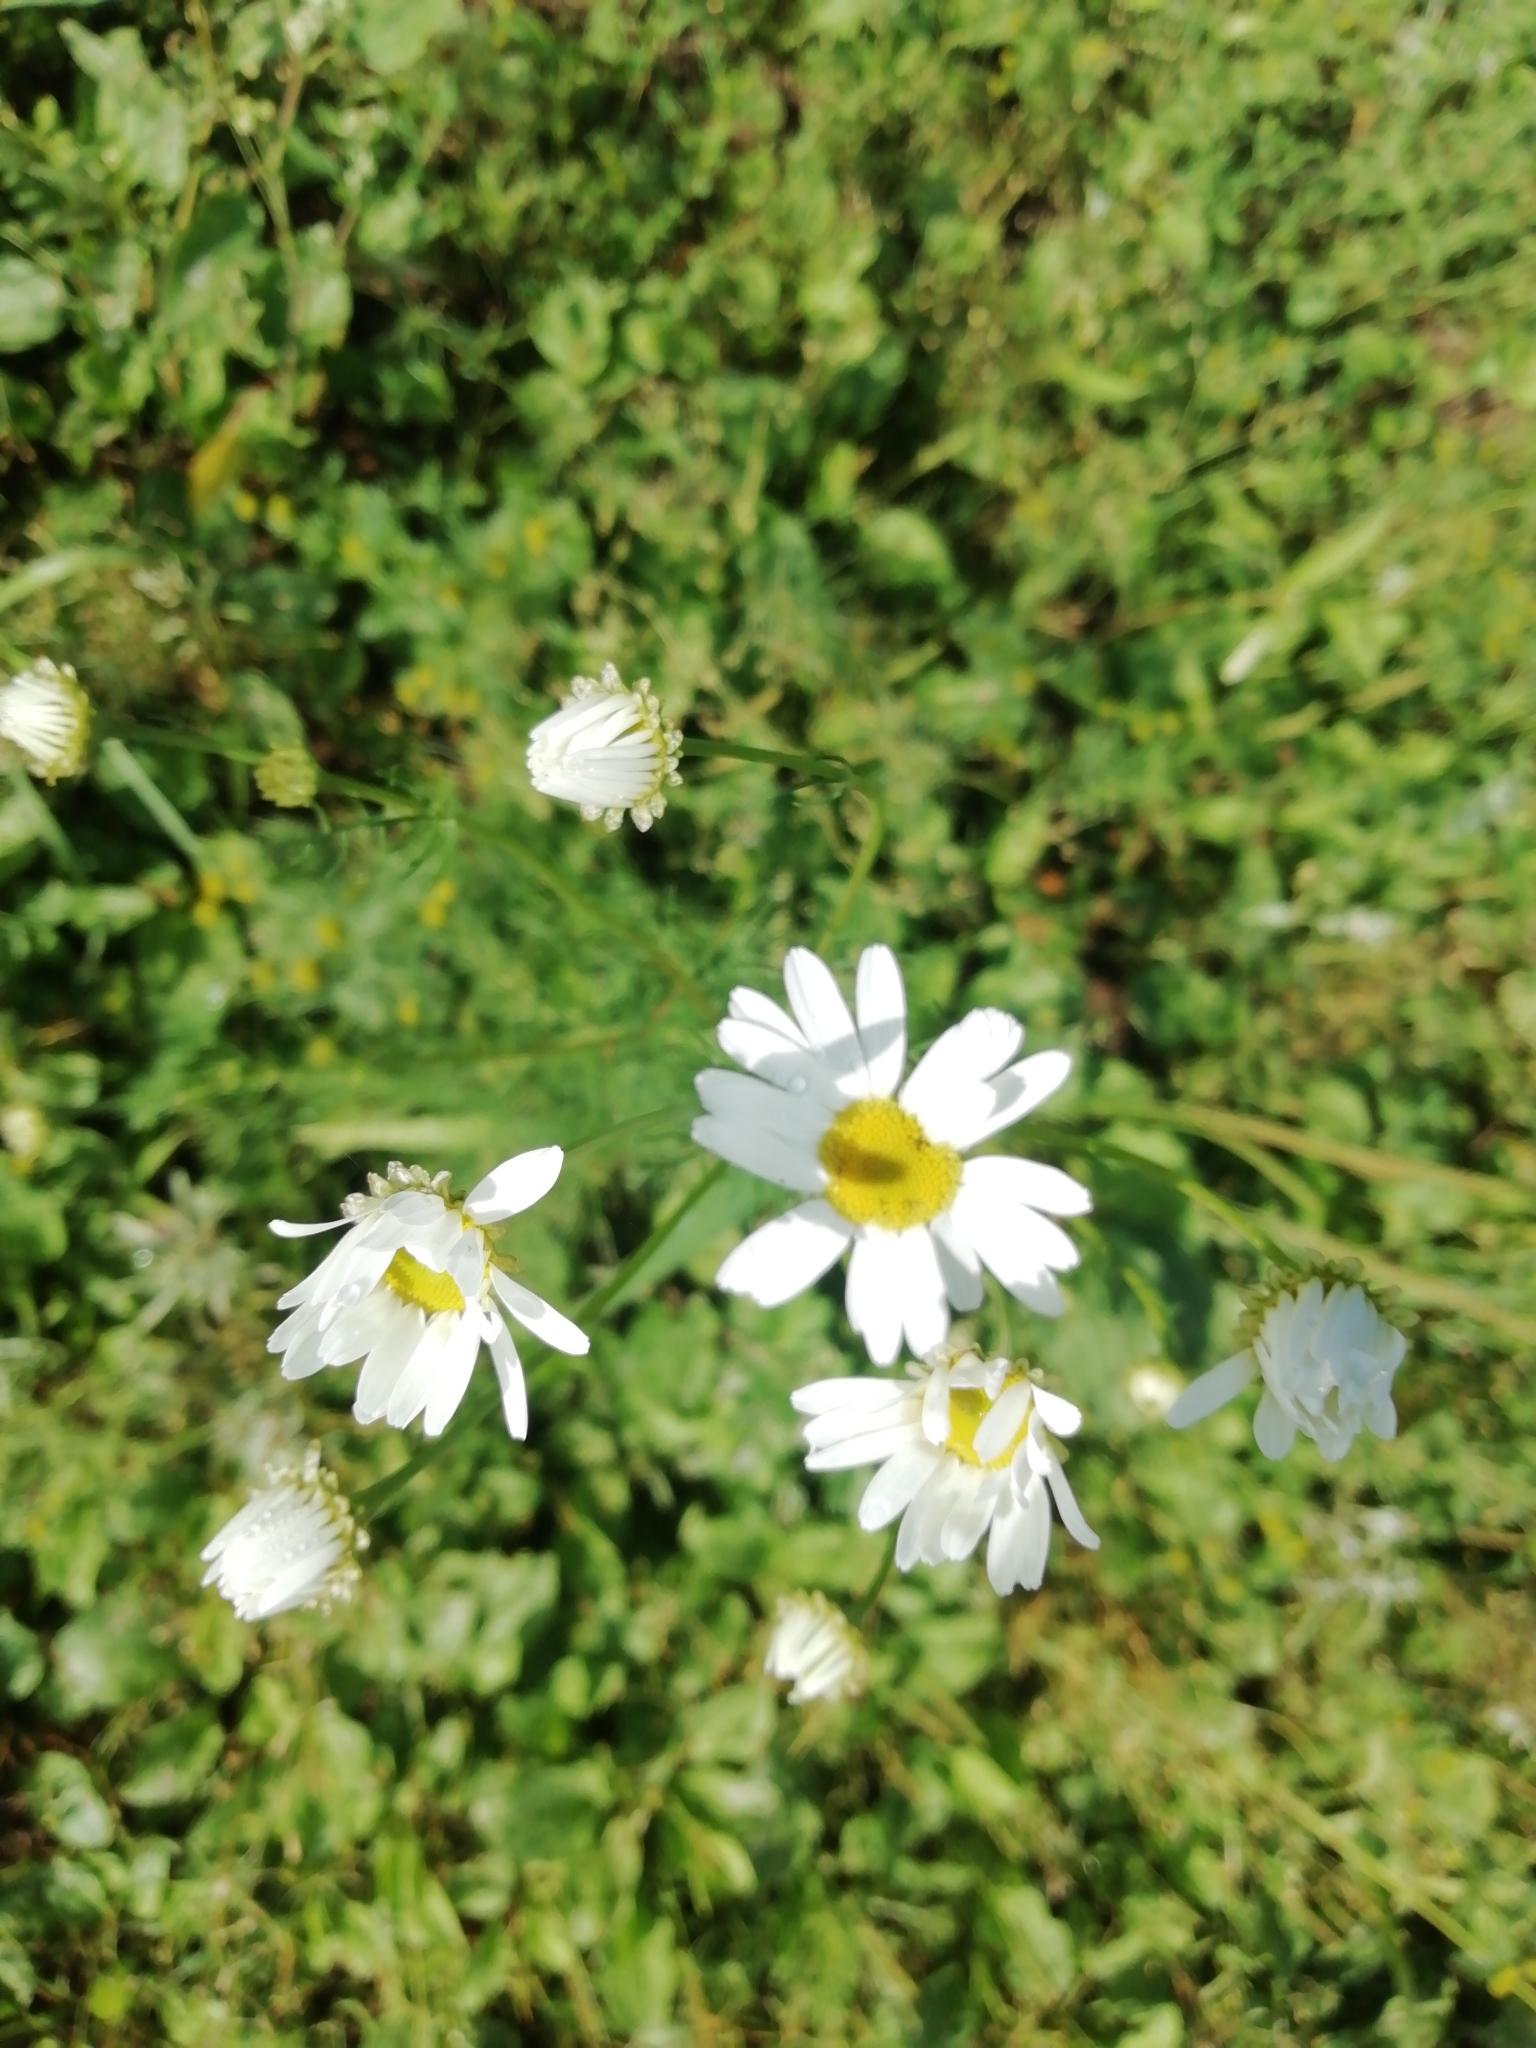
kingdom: Plantae
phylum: Tracheophyta
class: Magnoliopsida
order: Asterales
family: Asteraceae
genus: Tripleurospermum
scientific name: Tripleurospermum inodorum
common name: Scentless mayweed
